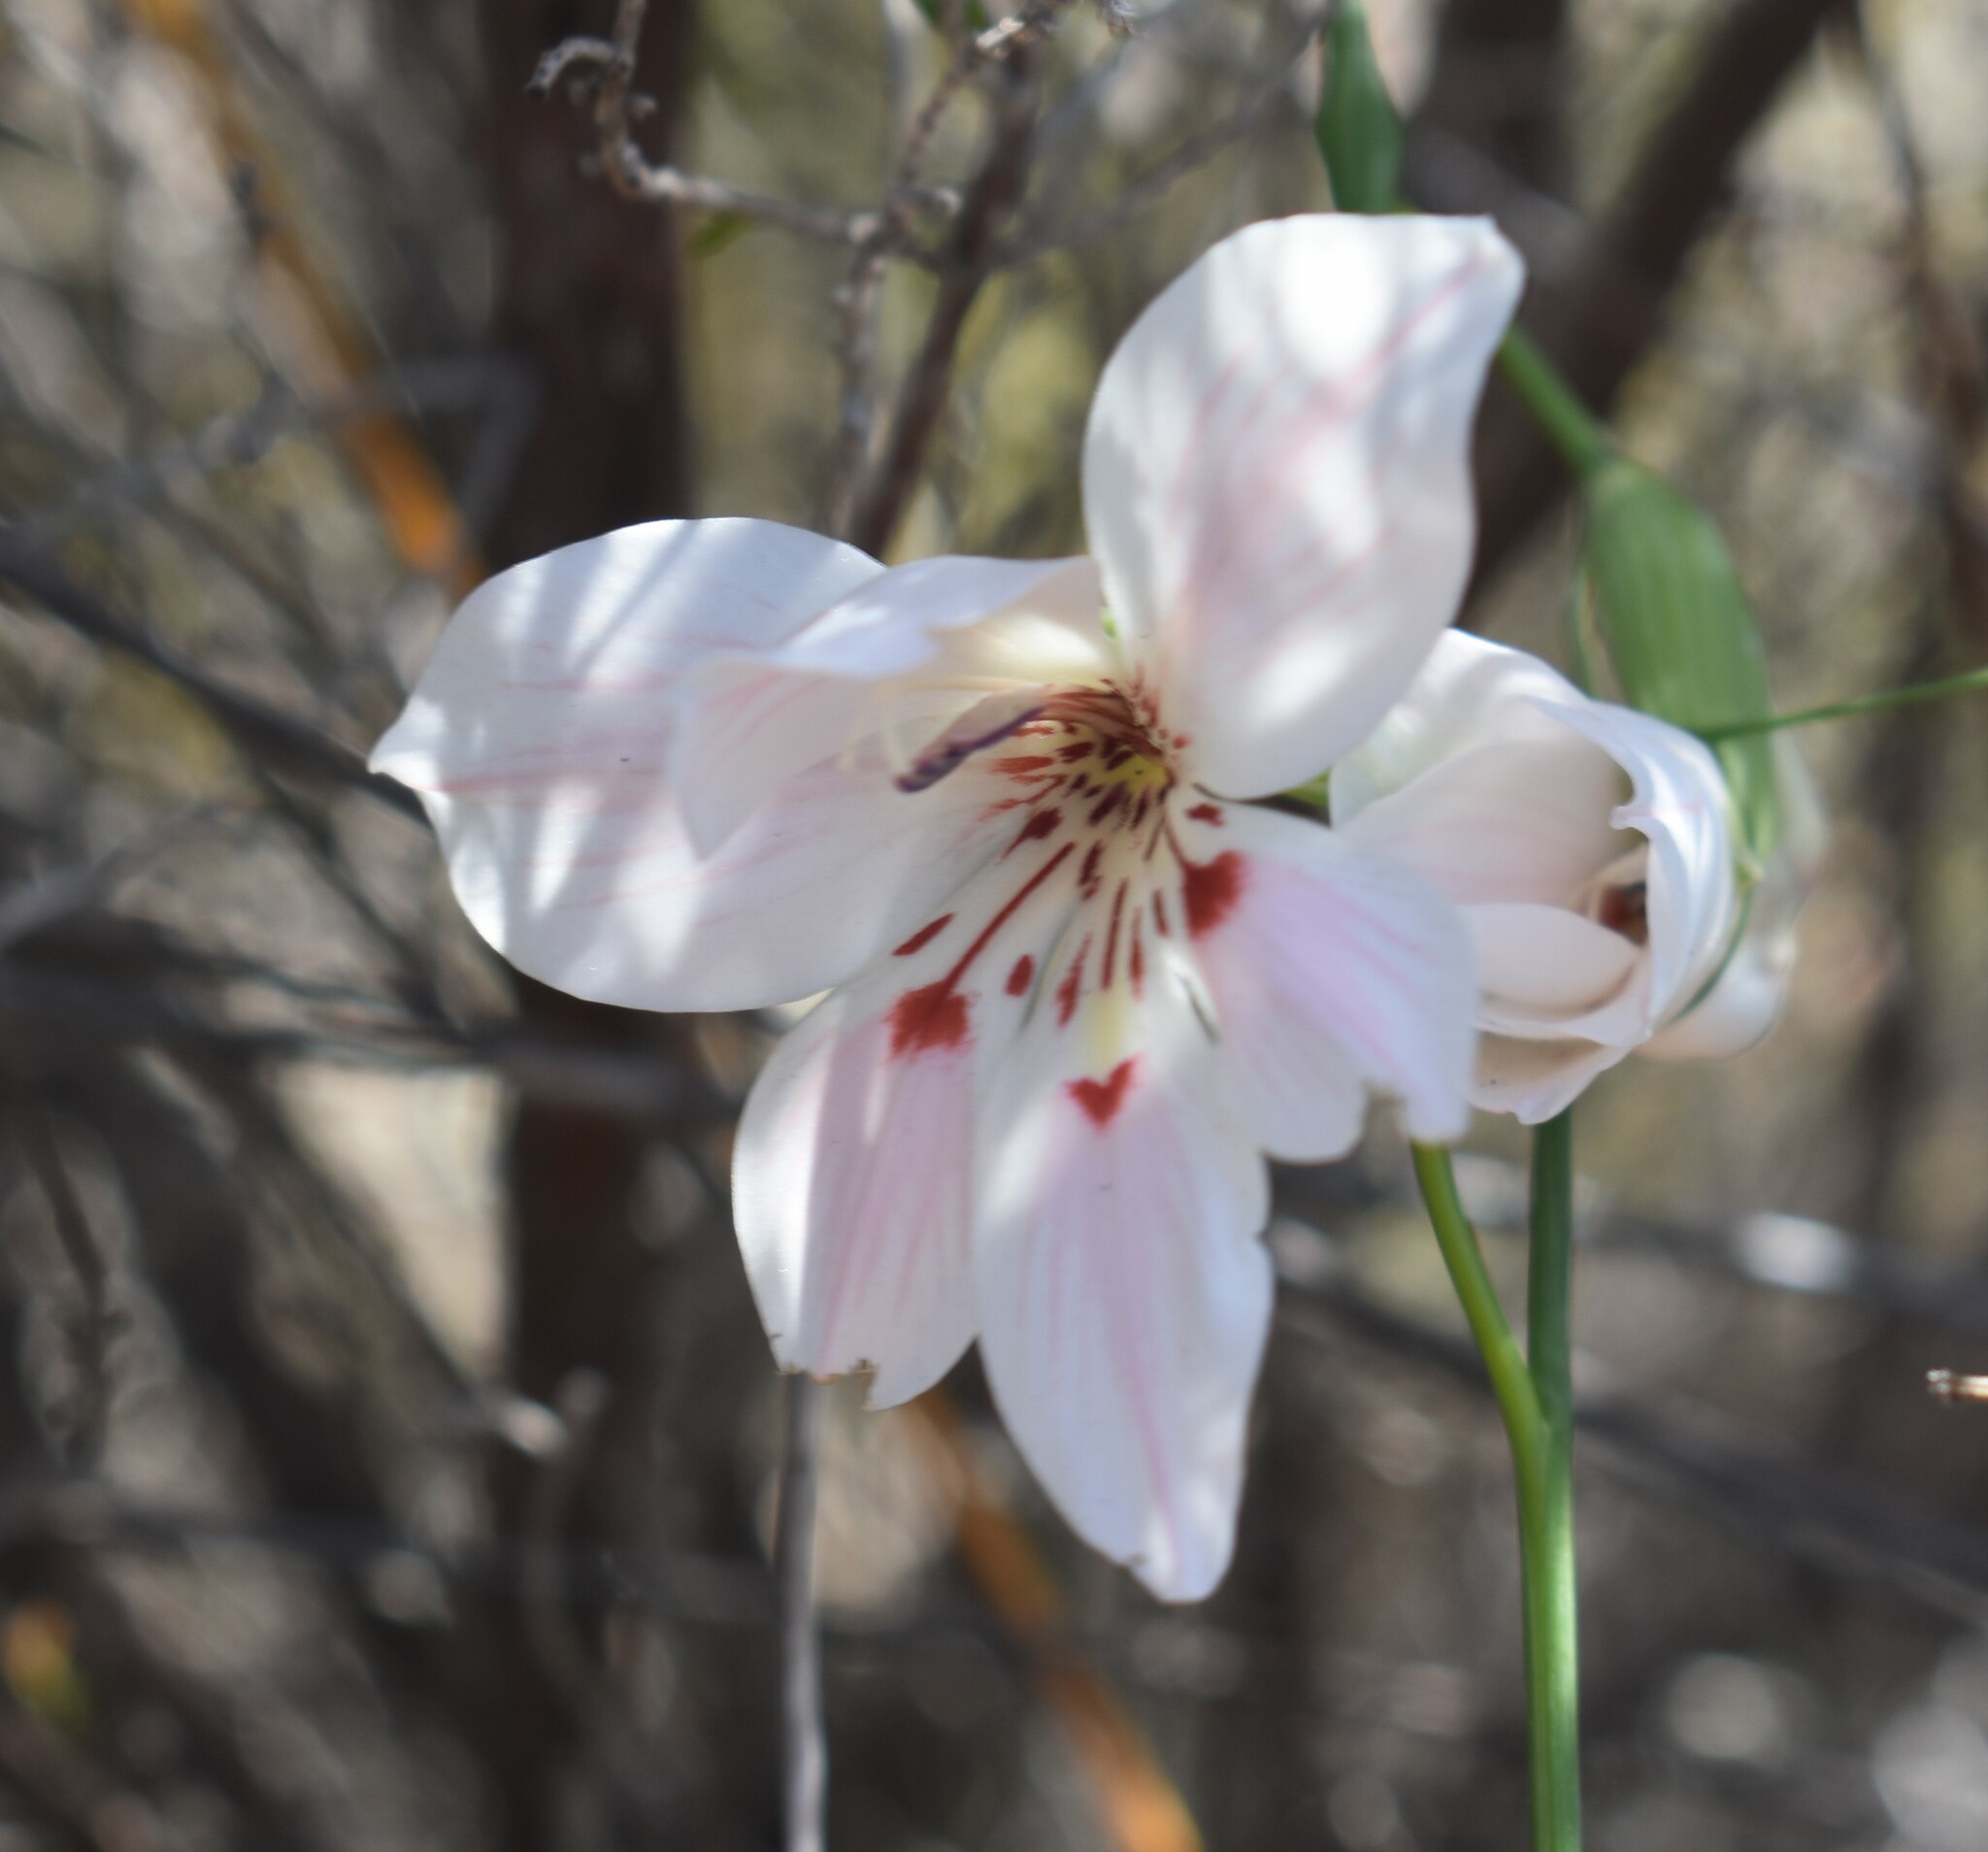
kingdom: Plantae
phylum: Tracheophyta
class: Liliopsida
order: Asparagales
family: Iridaceae
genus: Gladiolus
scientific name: Gladiolus debilis
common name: Painted-lady
